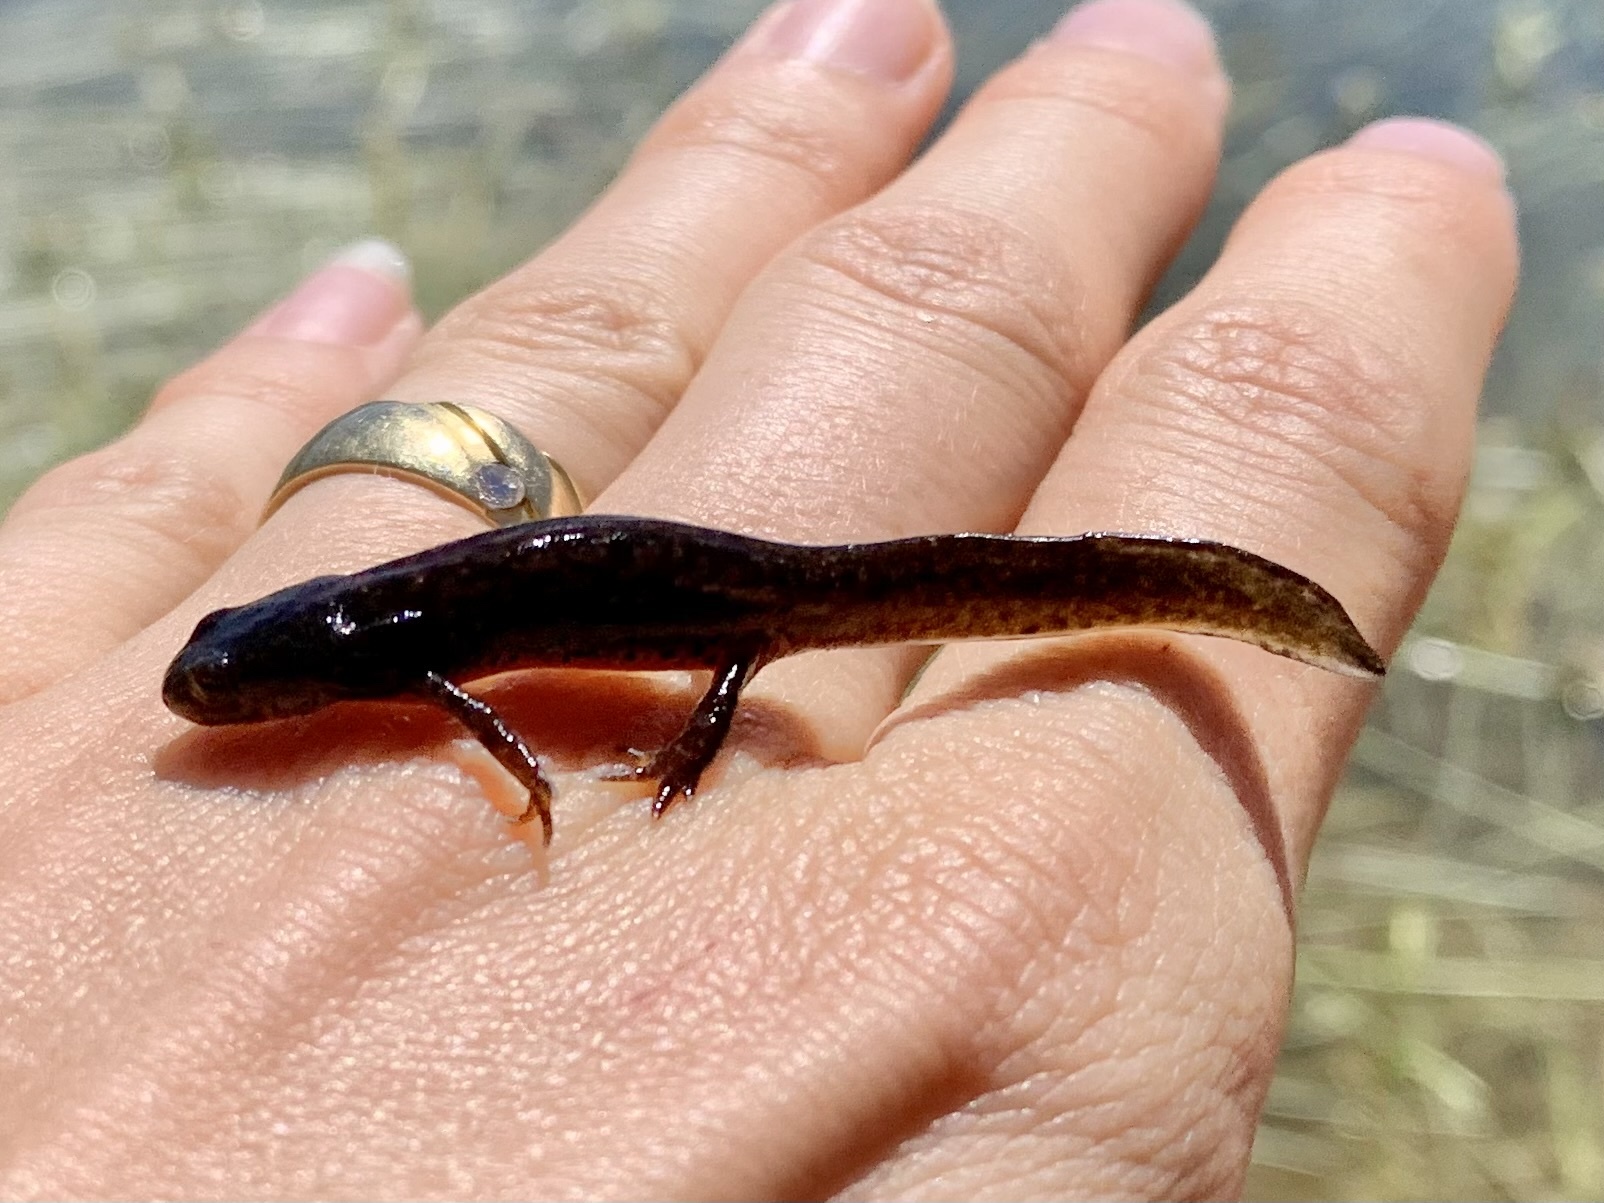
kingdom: Animalia
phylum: Chordata
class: Amphibia
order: Caudata
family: Salamandridae
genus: Ichthyosaura
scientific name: Ichthyosaura alpestris
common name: Alpine newt
